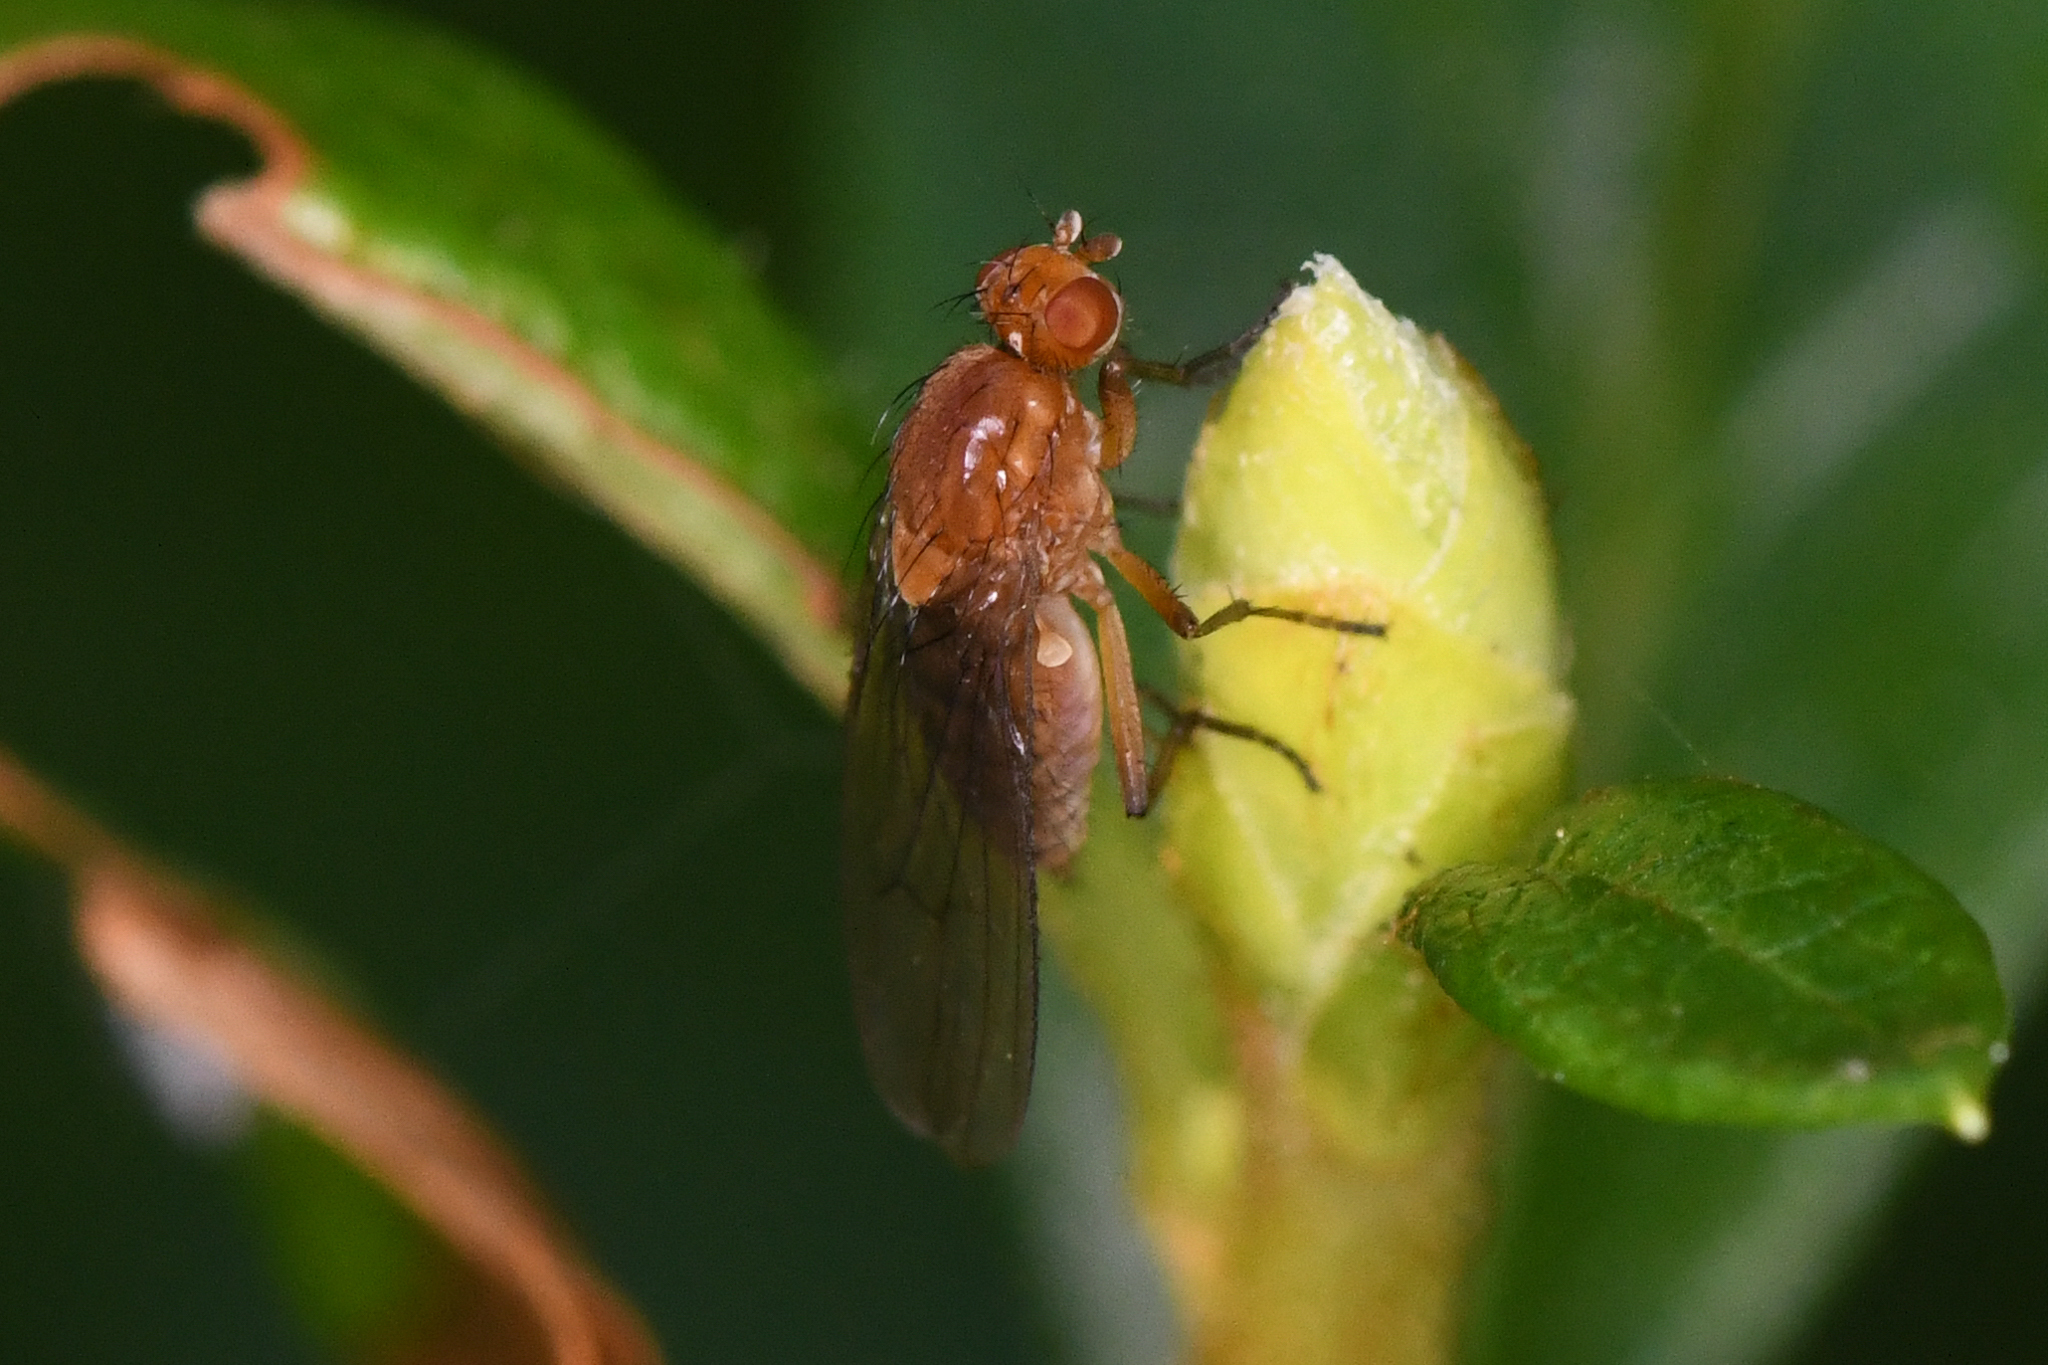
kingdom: Animalia
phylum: Arthropoda
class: Insecta
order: Diptera
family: Heleomyzidae
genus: Suillia
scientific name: Suillia convergens
